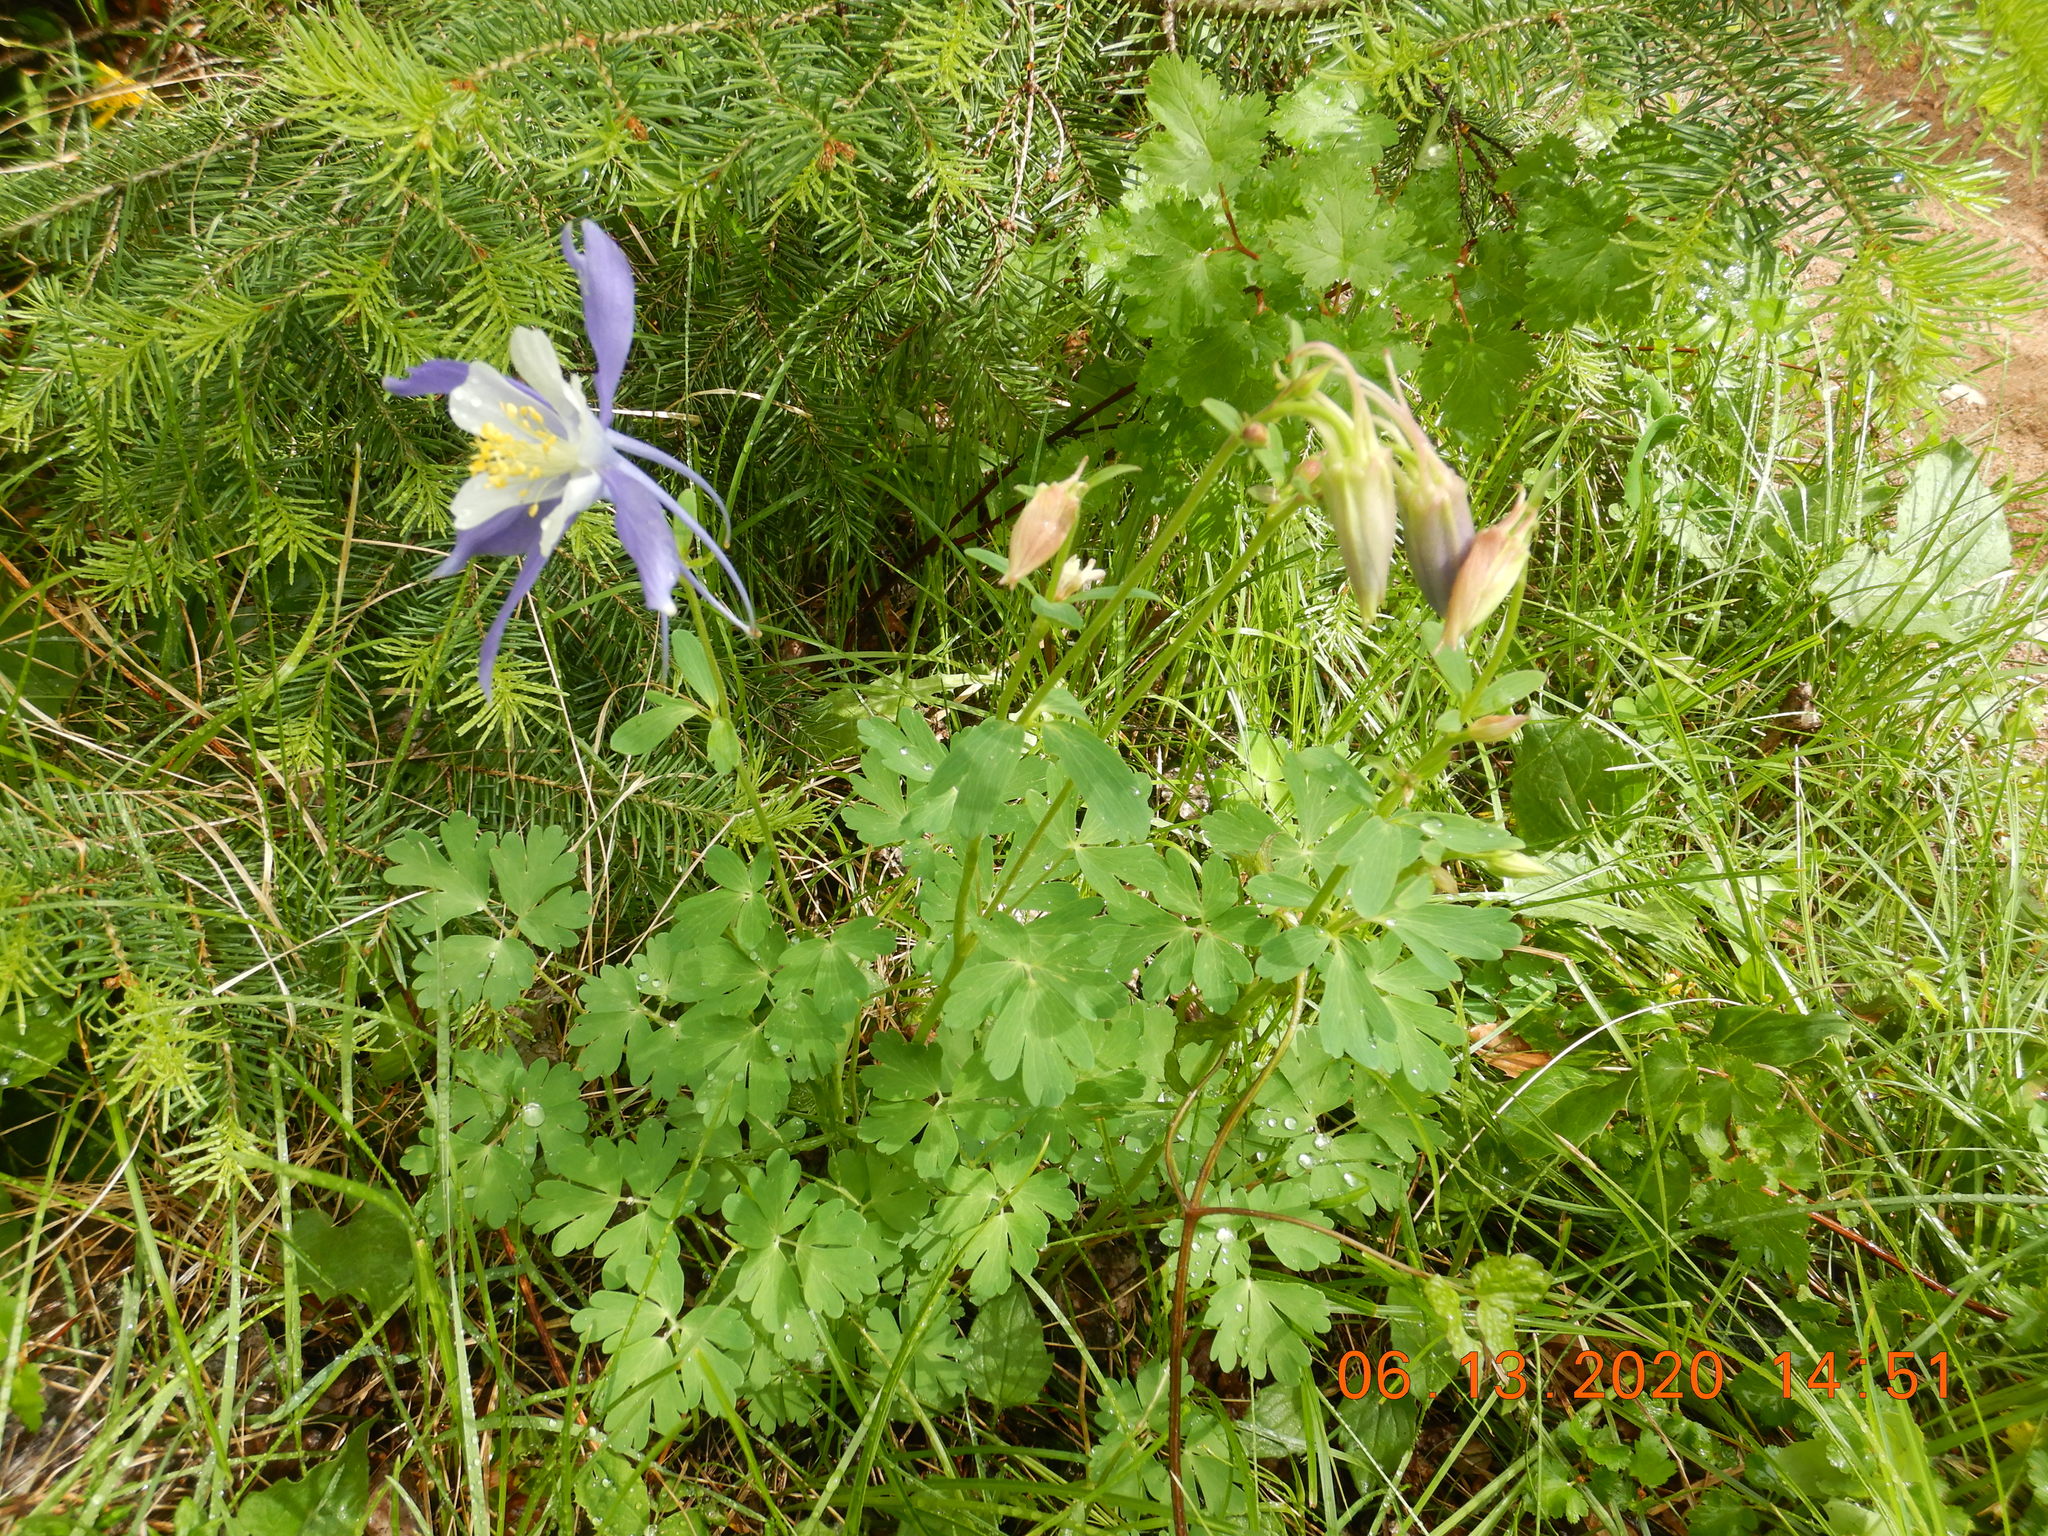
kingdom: Plantae
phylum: Tracheophyta
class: Magnoliopsida
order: Ranunculales
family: Ranunculaceae
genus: Aquilegia
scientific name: Aquilegia coerulea
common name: Rocky mountain columbine
